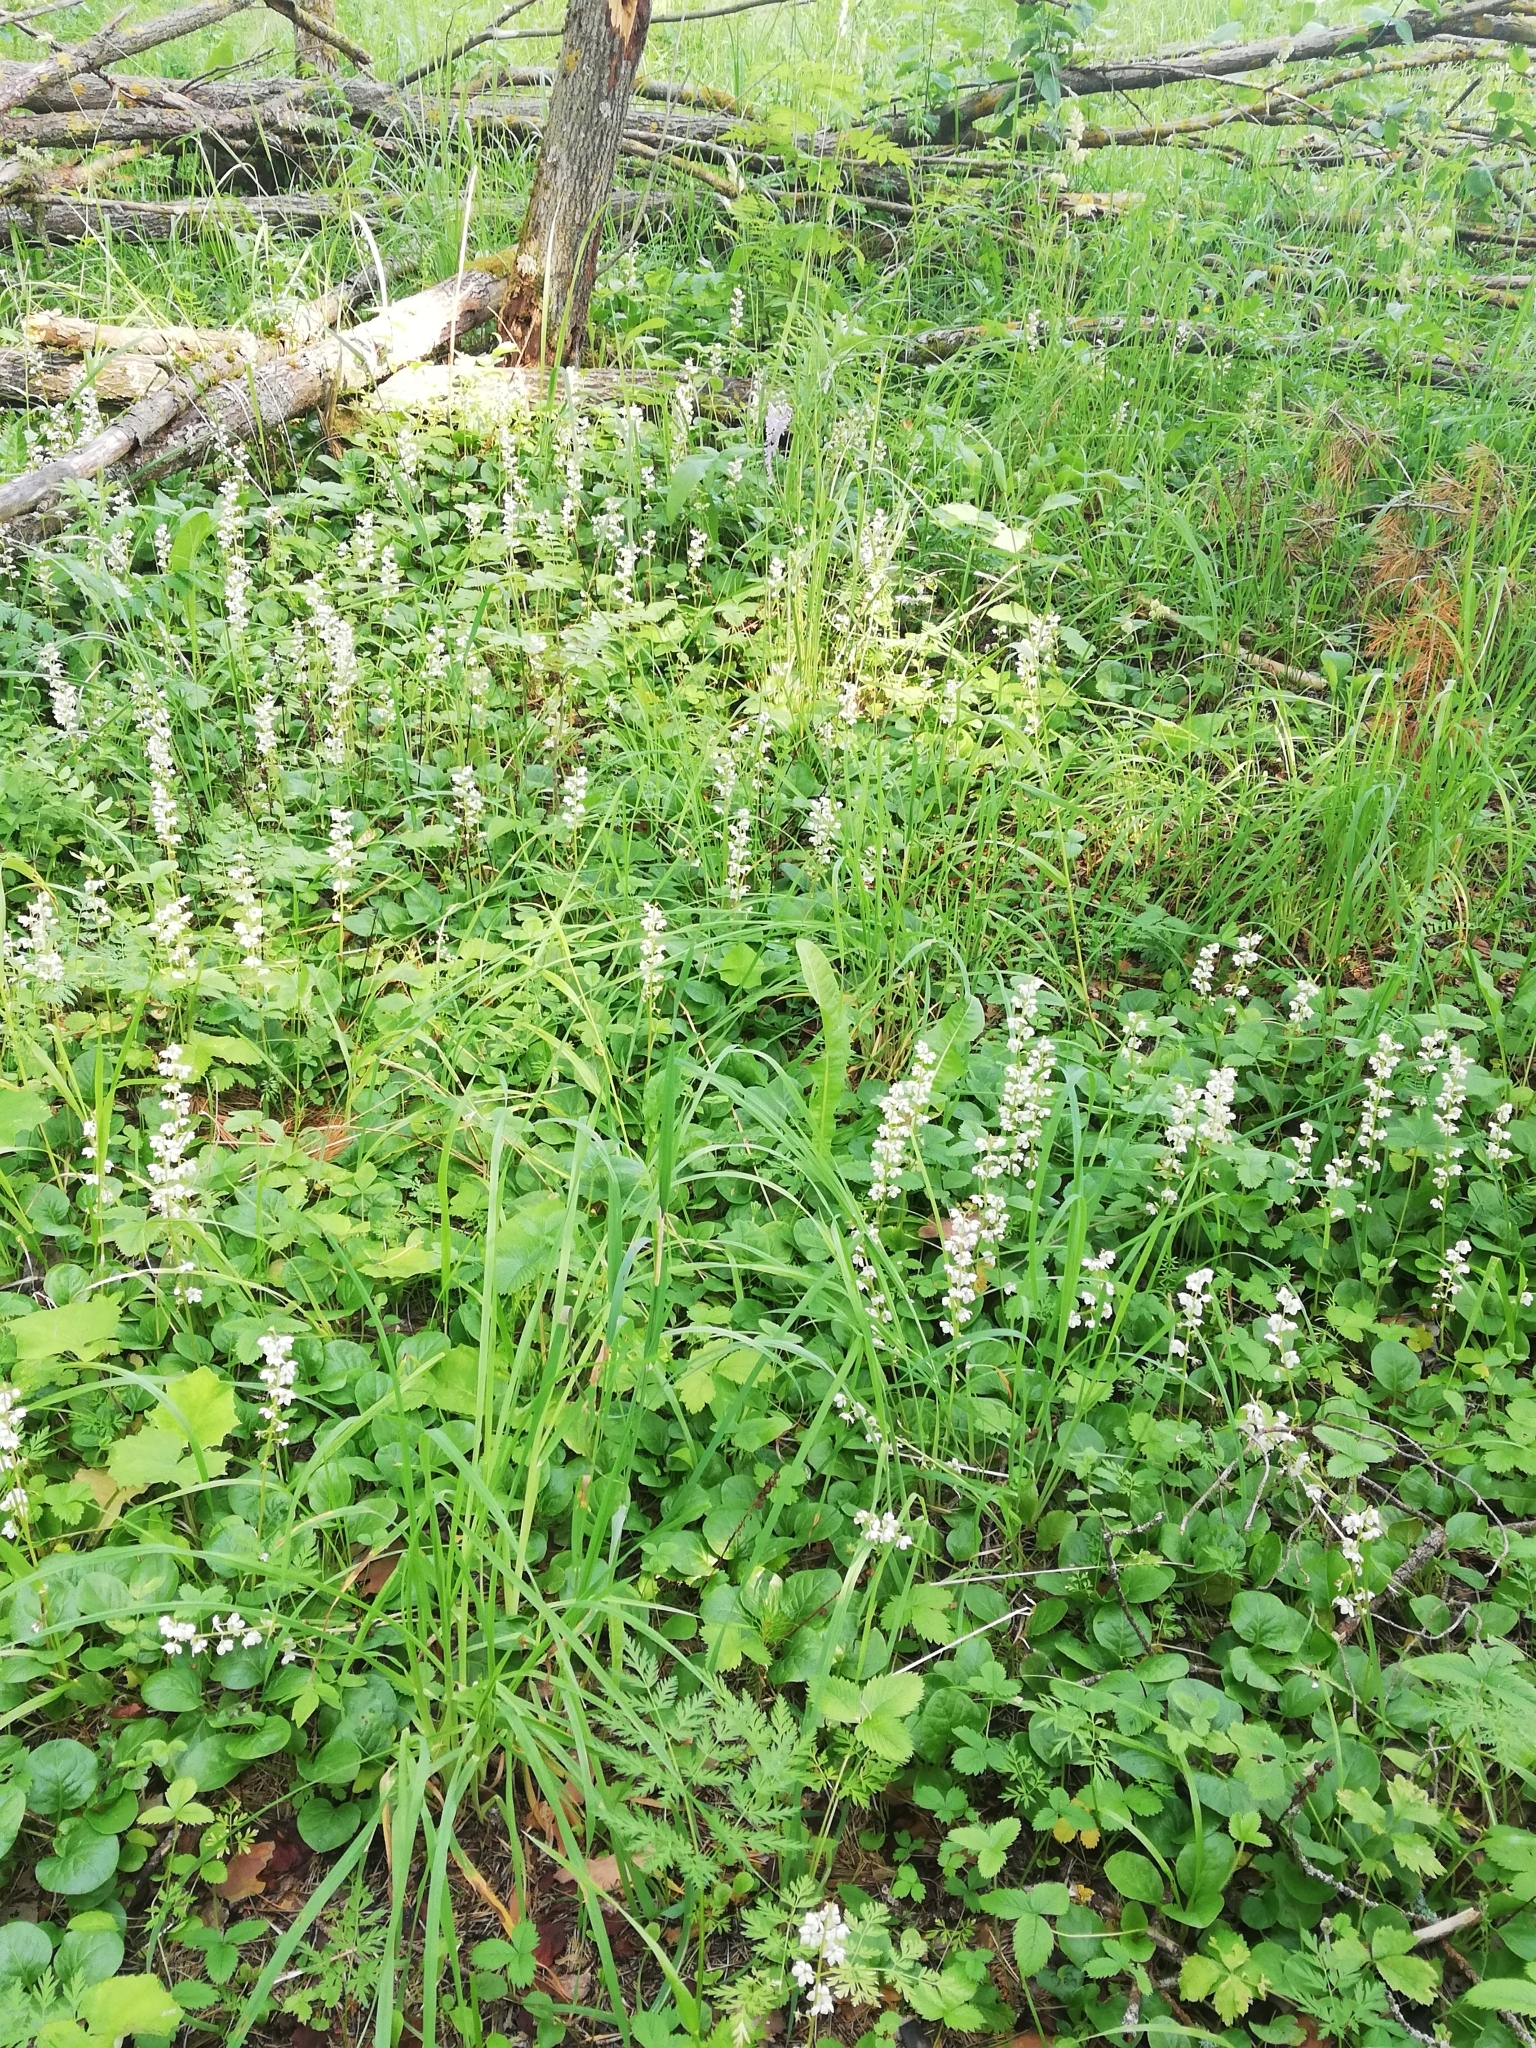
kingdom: Plantae
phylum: Tracheophyta
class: Magnoliopsida
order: Ericales
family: Ericaceae
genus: Pyrola
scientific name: Pyrola rotundifolia
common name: Round-leaved wintergreen
